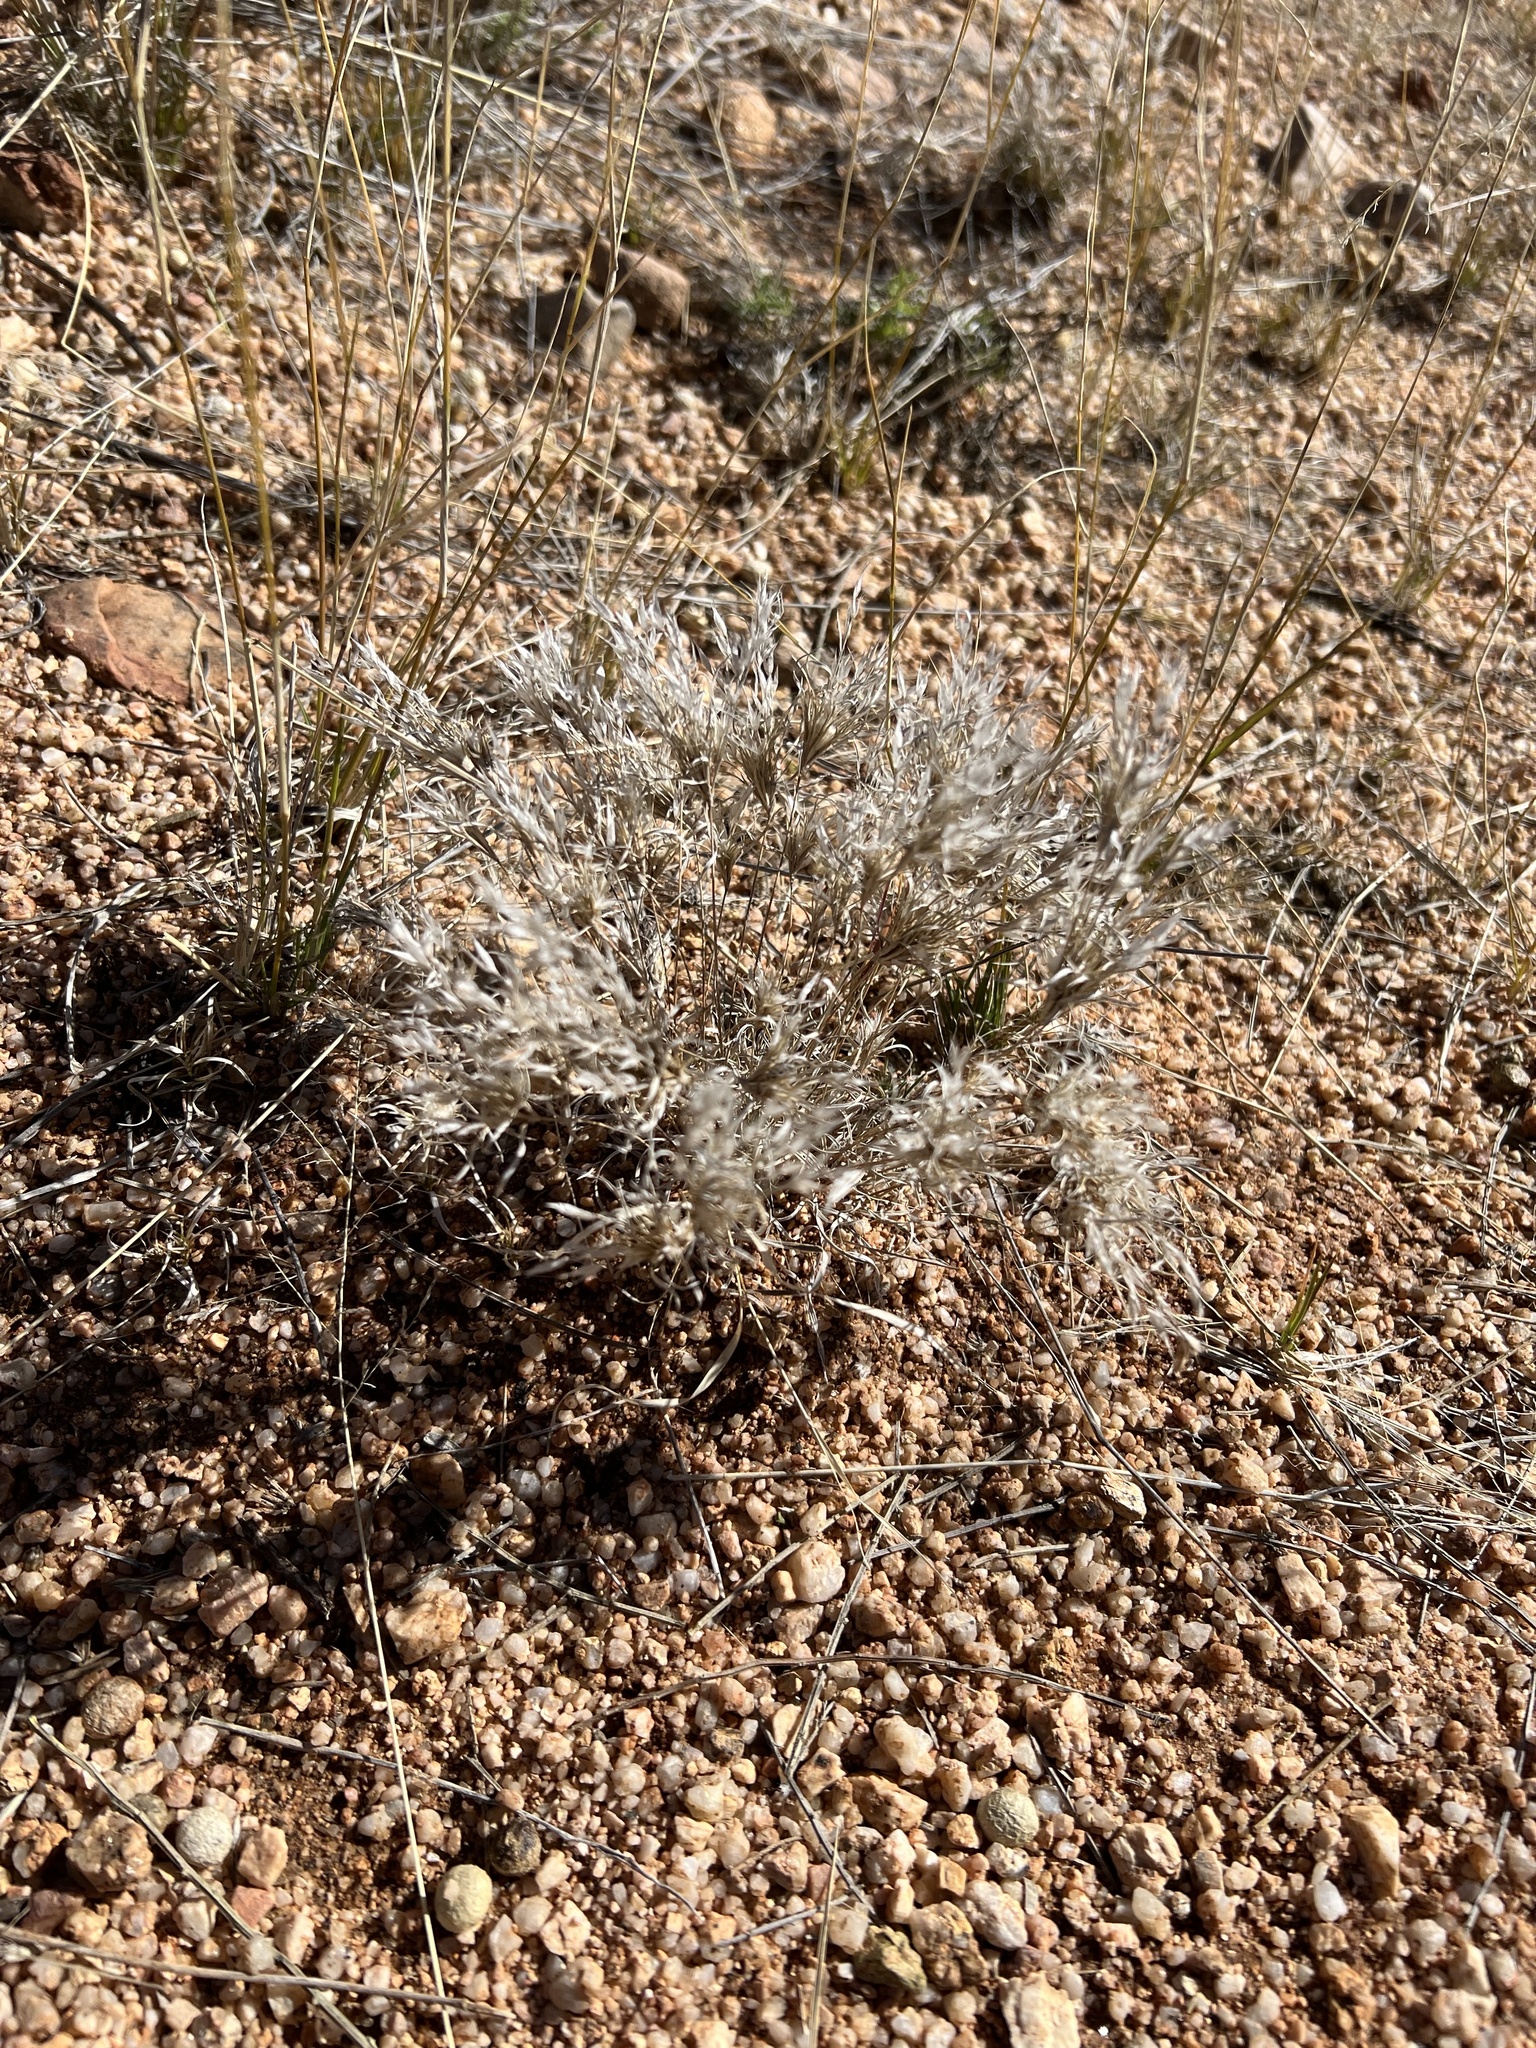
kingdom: Plantae
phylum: Tracheophyta
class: Liliopsida
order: Poales
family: Poaceae
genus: Dasyochloa
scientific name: Dasyochloa pulchella
